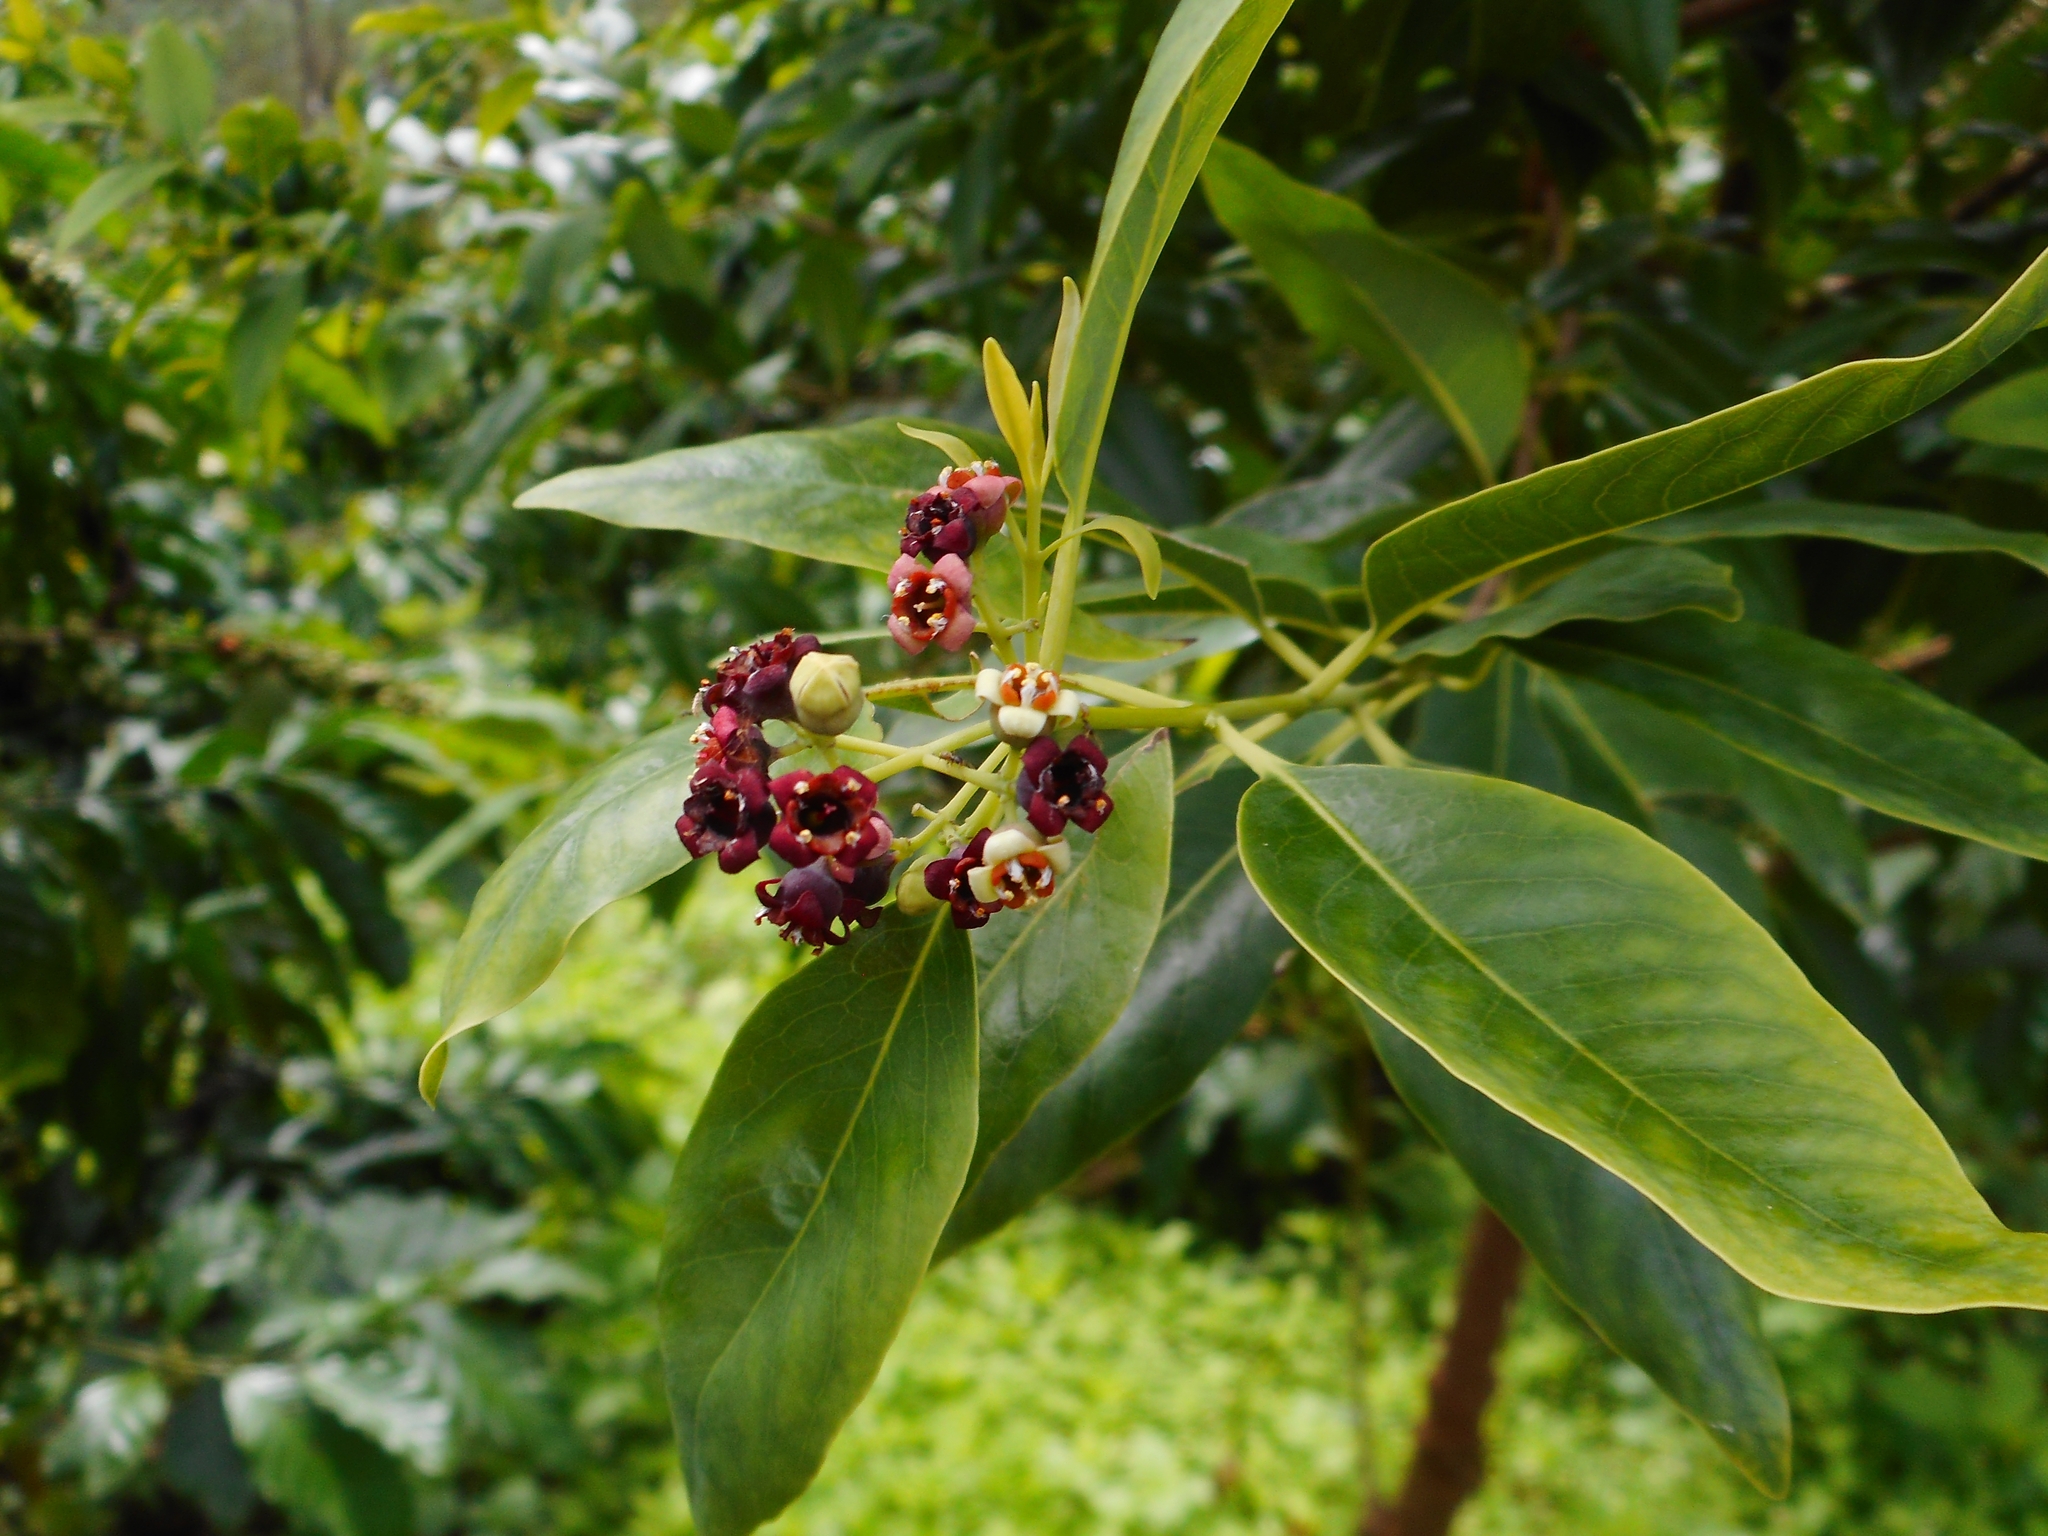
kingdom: Plantae
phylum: Tracheophyta
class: Magnoliopsida
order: Santalales
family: Santalaceae
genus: Santalum
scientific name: Santalum album
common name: Indian sandalwood
